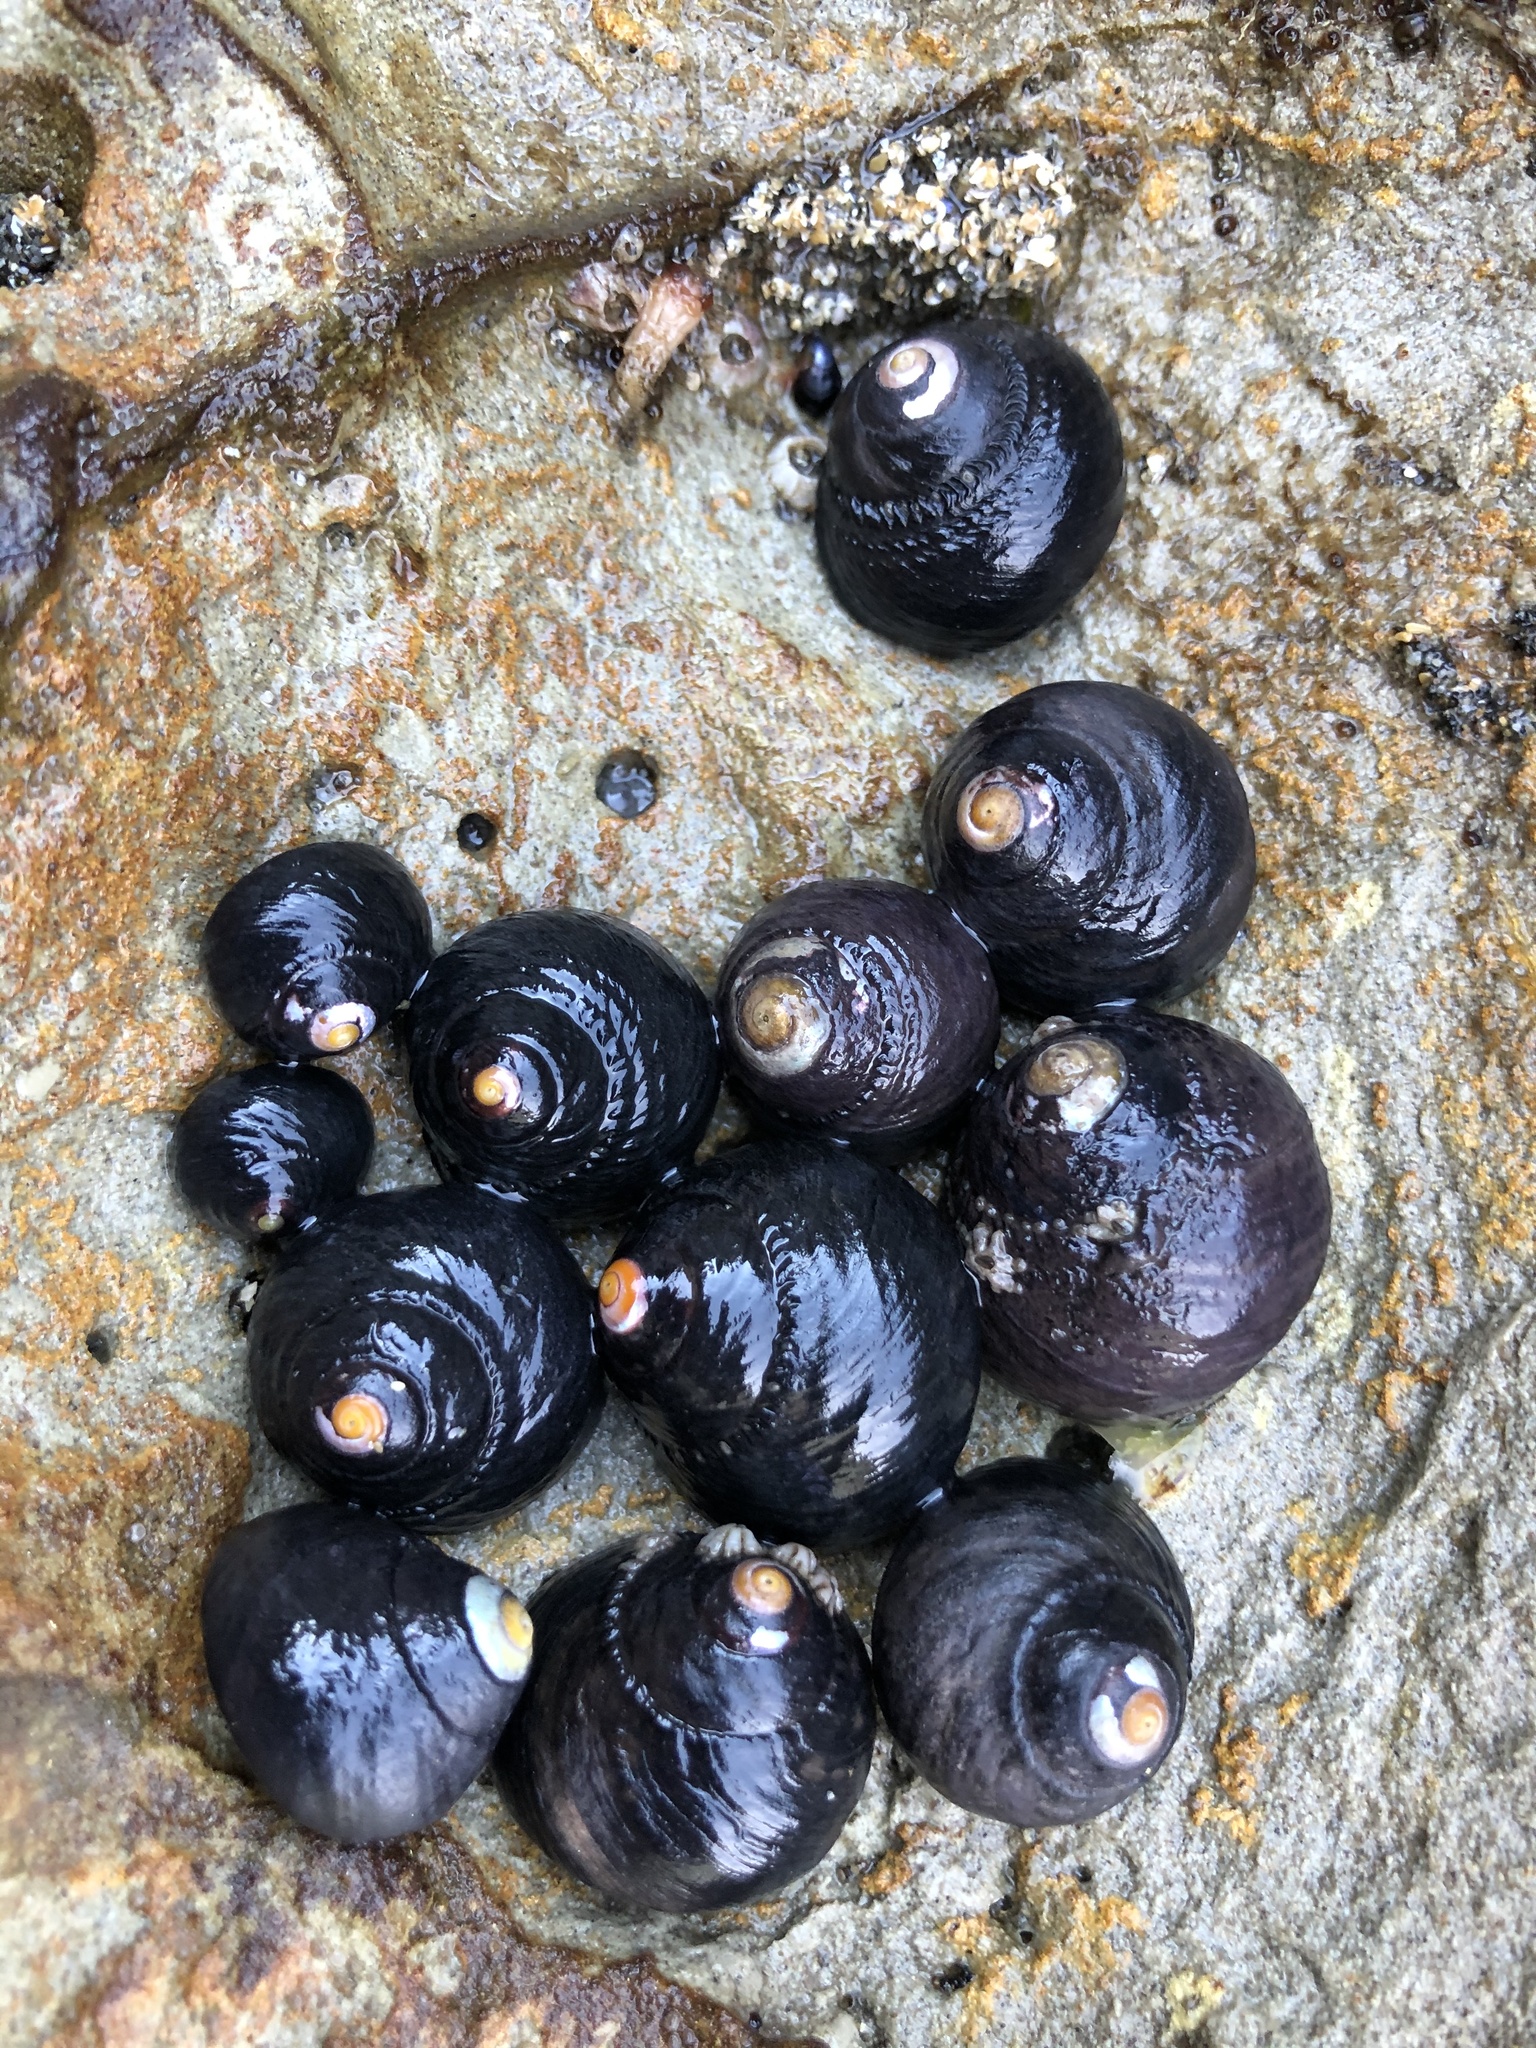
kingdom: Animalia
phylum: Mollusca
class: Gastropoda
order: Trochida
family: Tegulidae
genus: Tegula
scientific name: Tegula funebralis
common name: Black tegula
